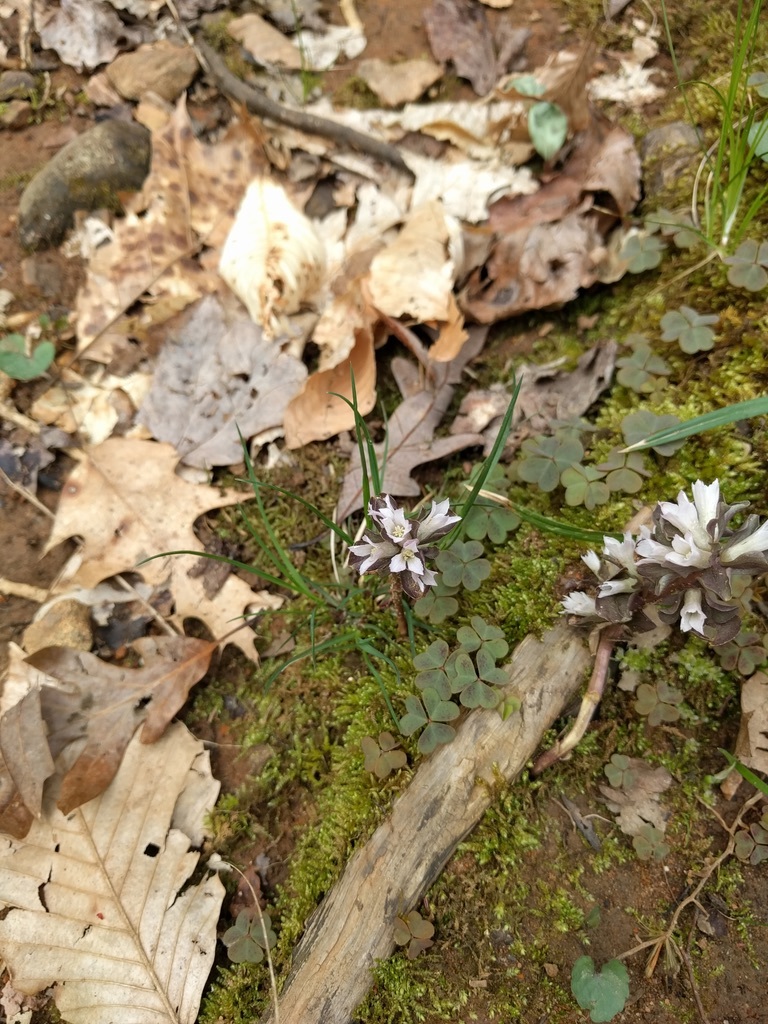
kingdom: Plantae
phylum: Tracheophyta
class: Magnoliopsida
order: Gentianales
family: Gentianaceae
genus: Obolaria
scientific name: Obolaria virginica
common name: Pennywort
